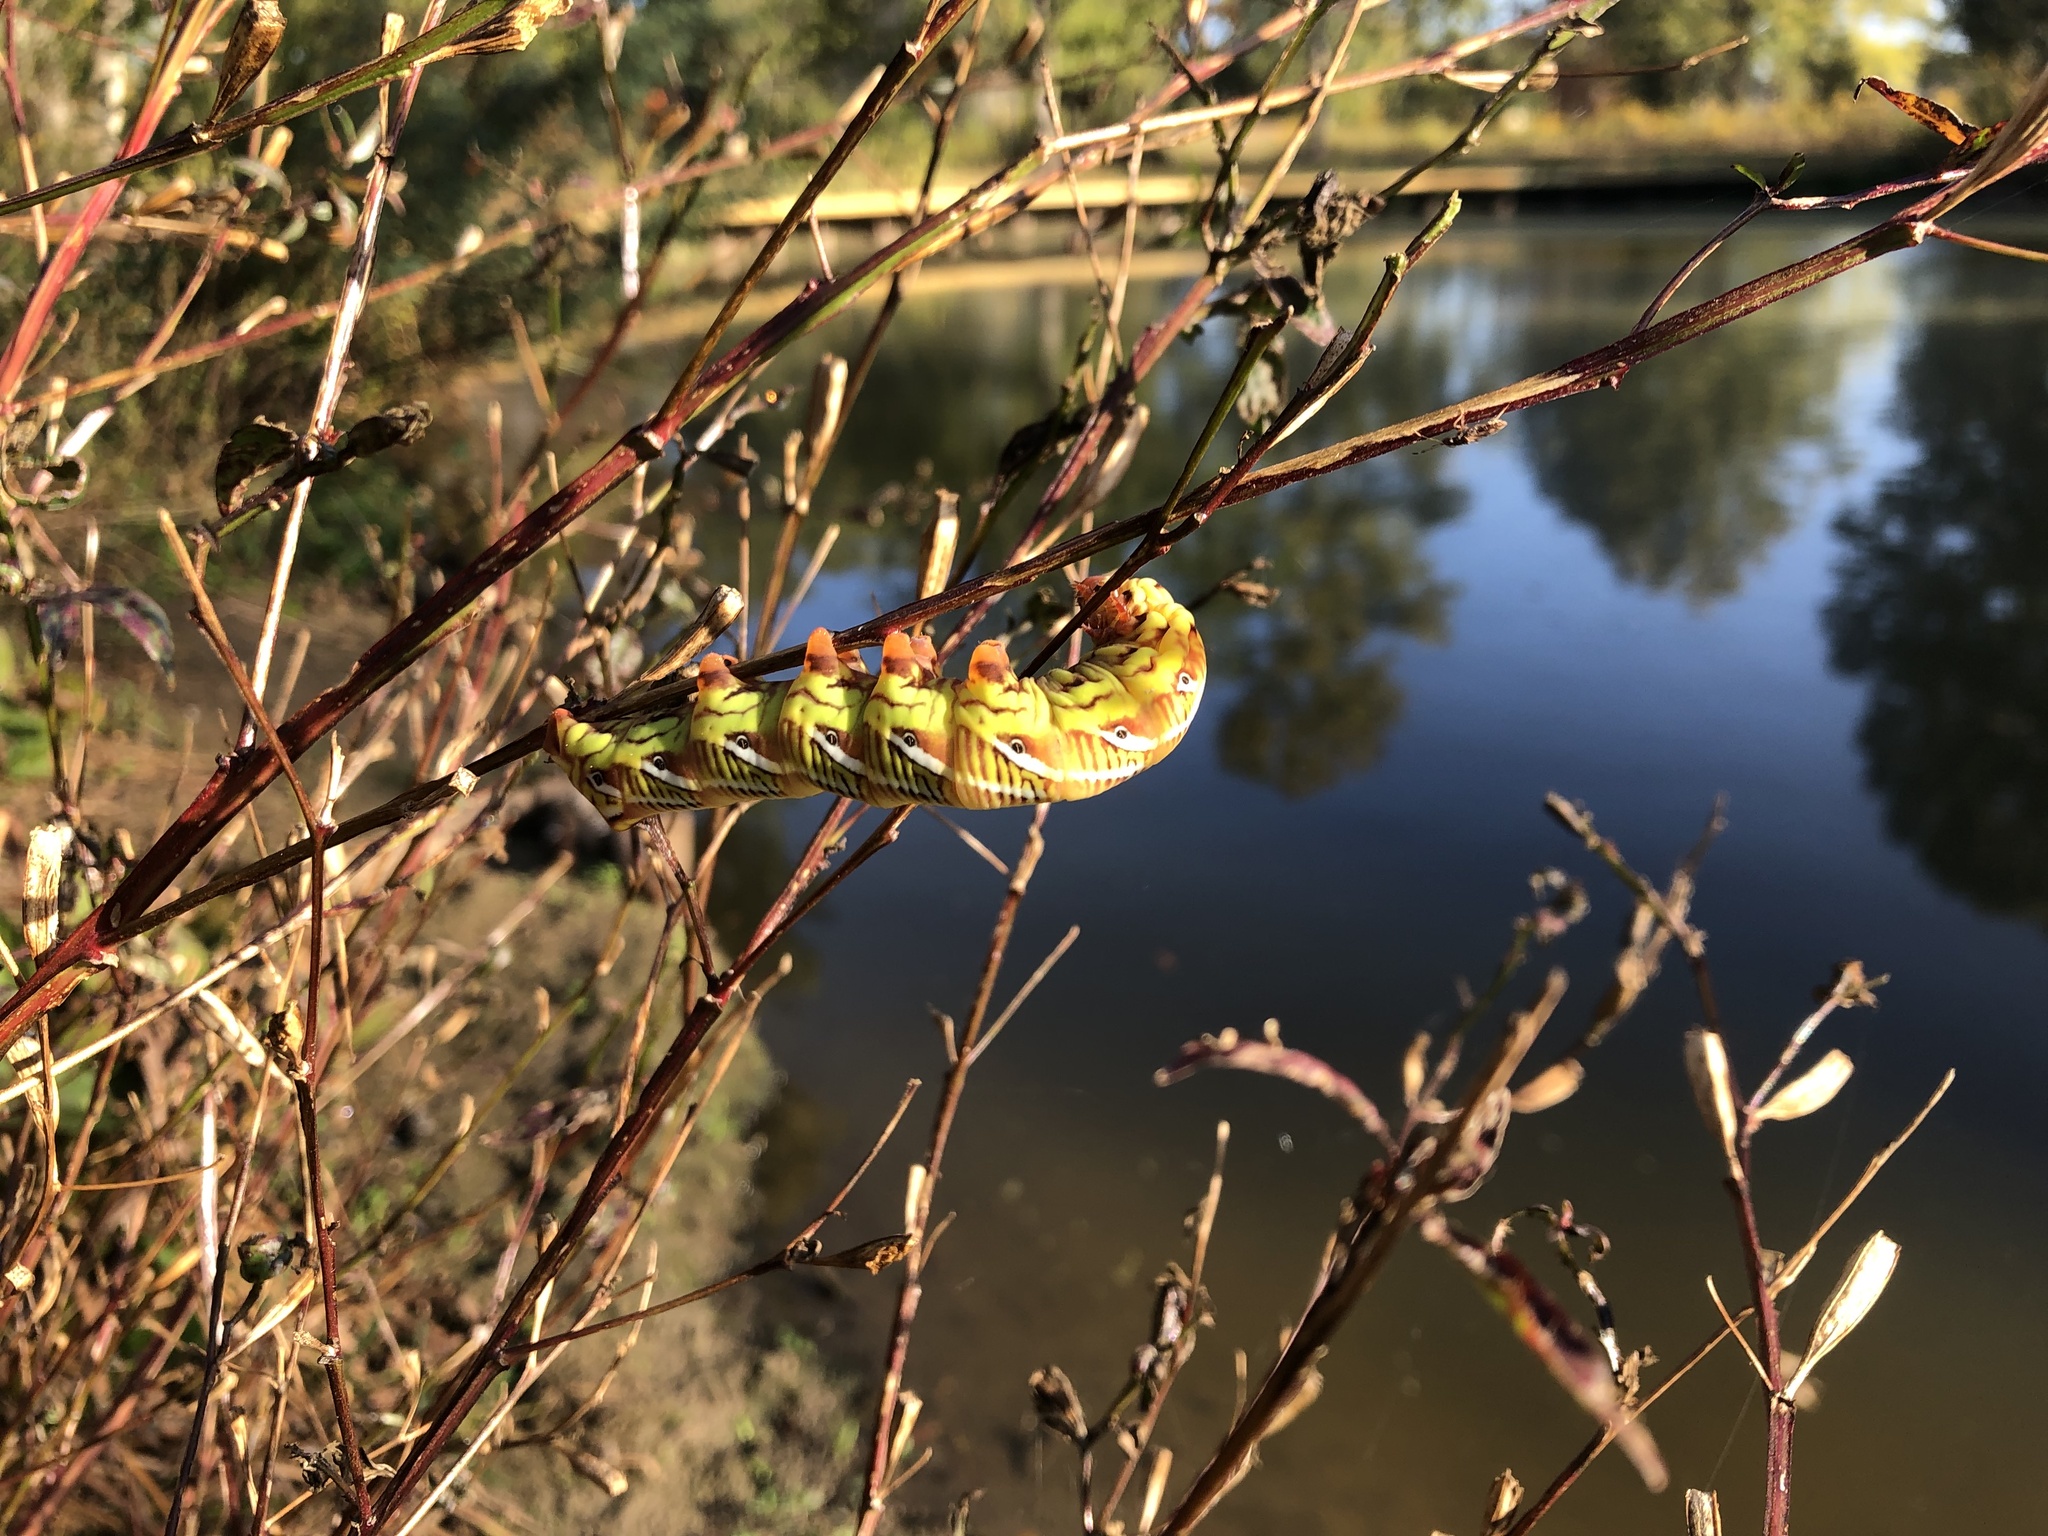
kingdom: Animalia
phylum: Arthropoda
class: Insecta
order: Lepidoptera
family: Sphingidae
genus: Eumorpha
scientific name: Eumorpha fasciatus
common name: Banded sphinx
